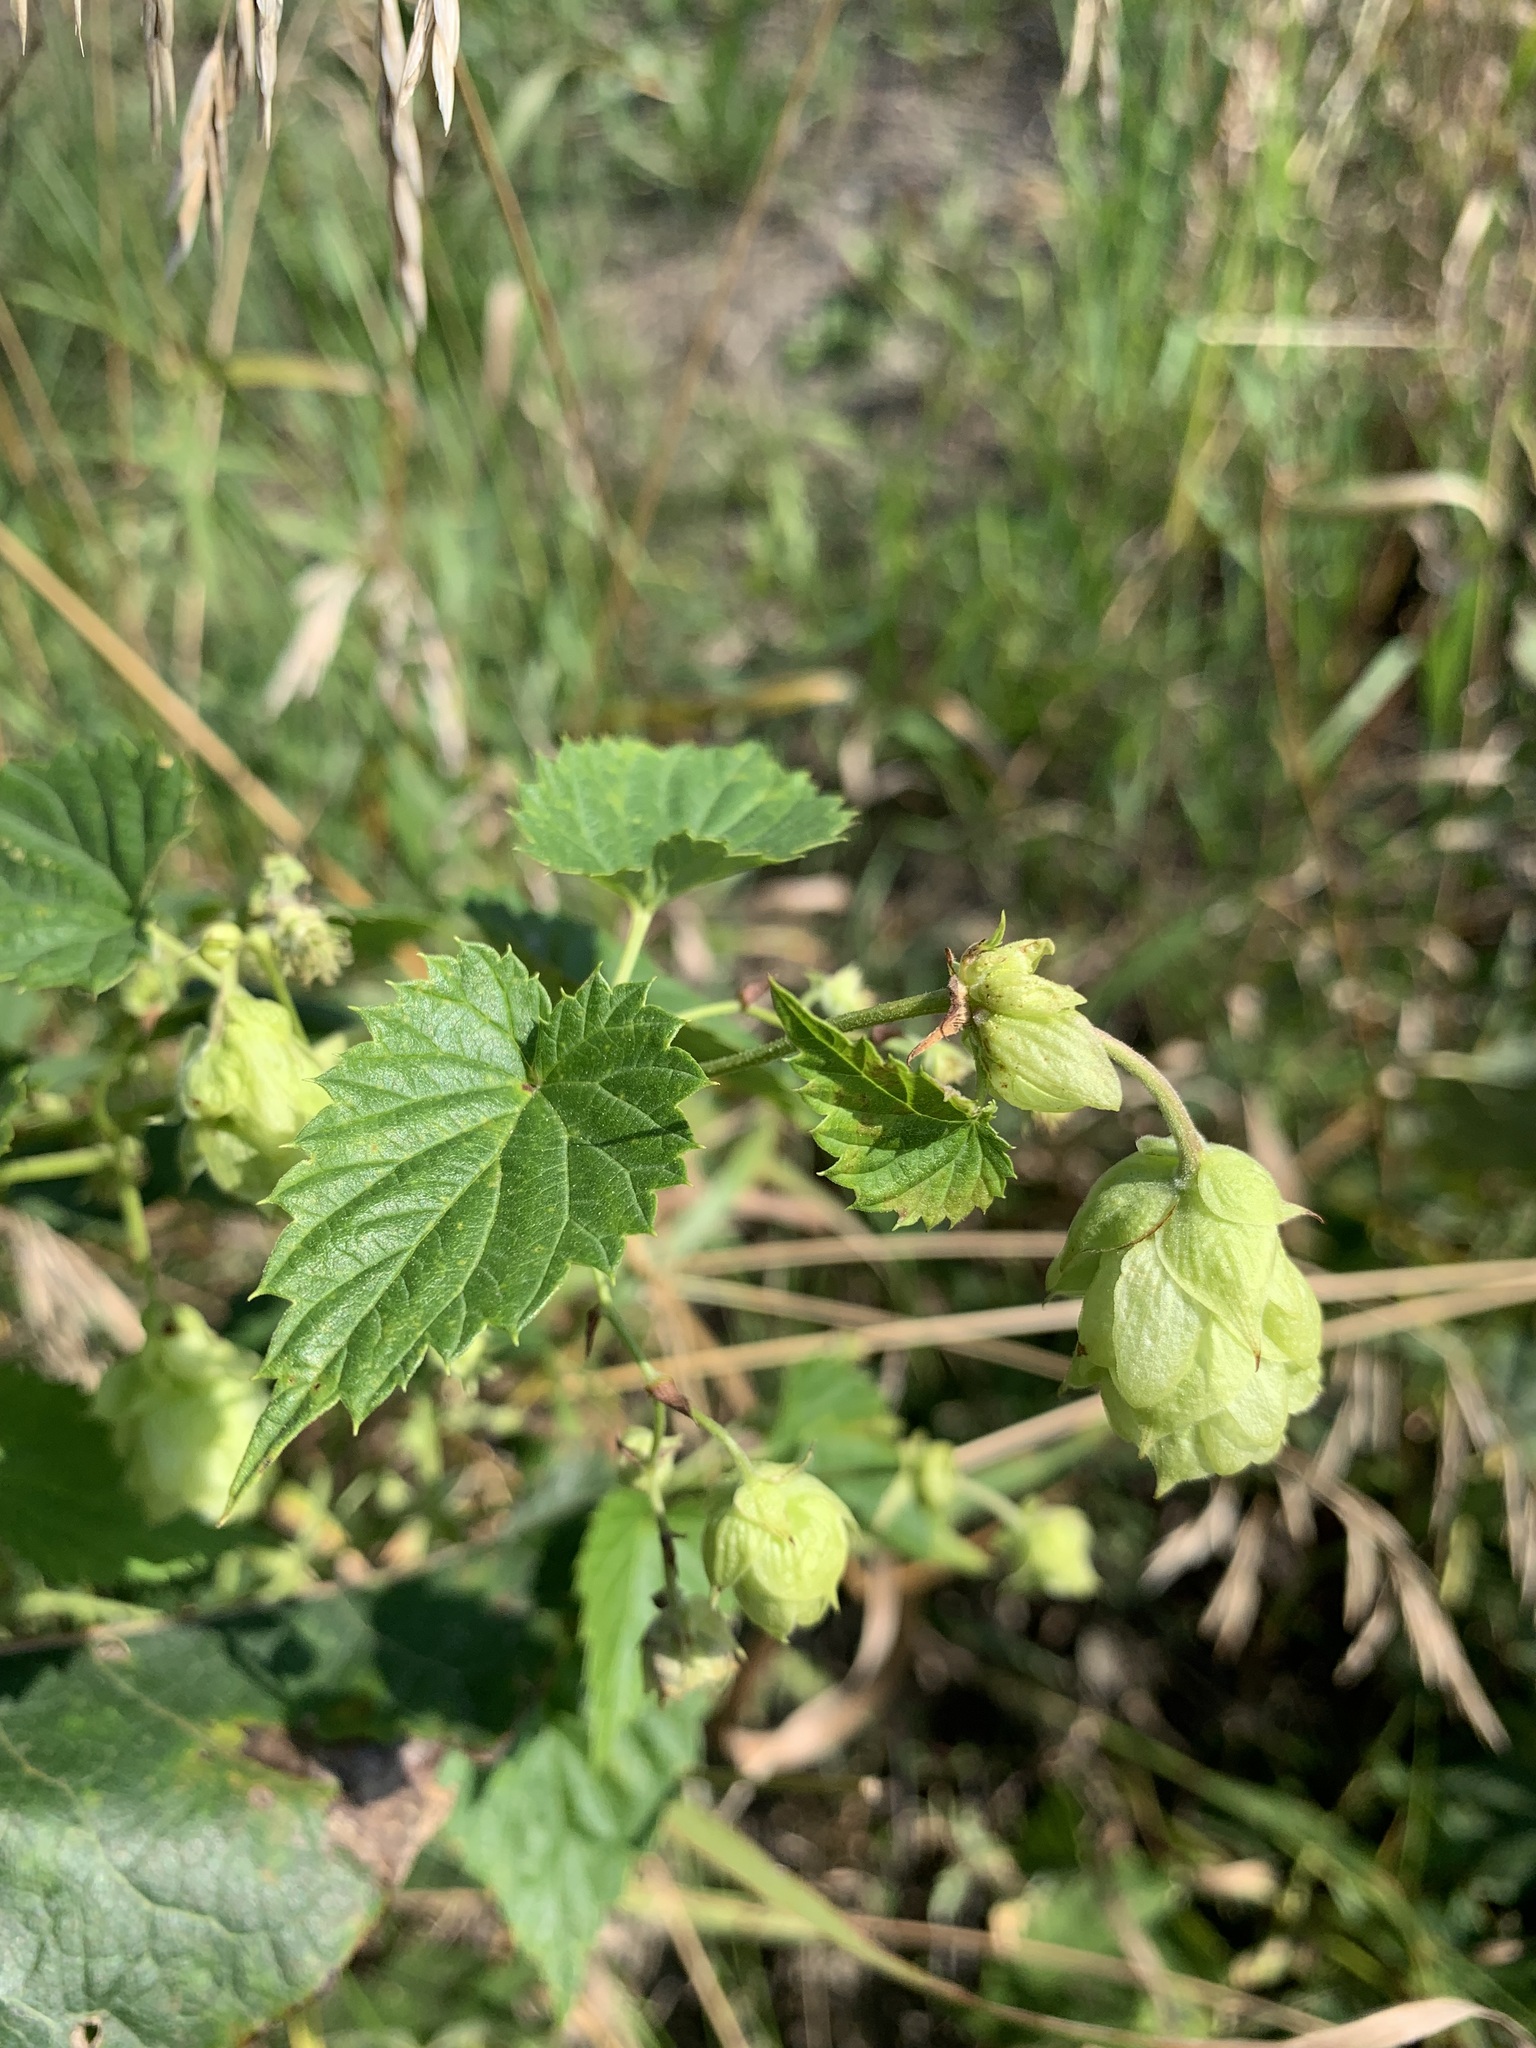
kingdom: Plantae
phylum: Tracheophyta
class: Magnoliopsida
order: Rosales
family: Cannabaceae
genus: Humulus
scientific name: Humulus lupulus
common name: Hop
